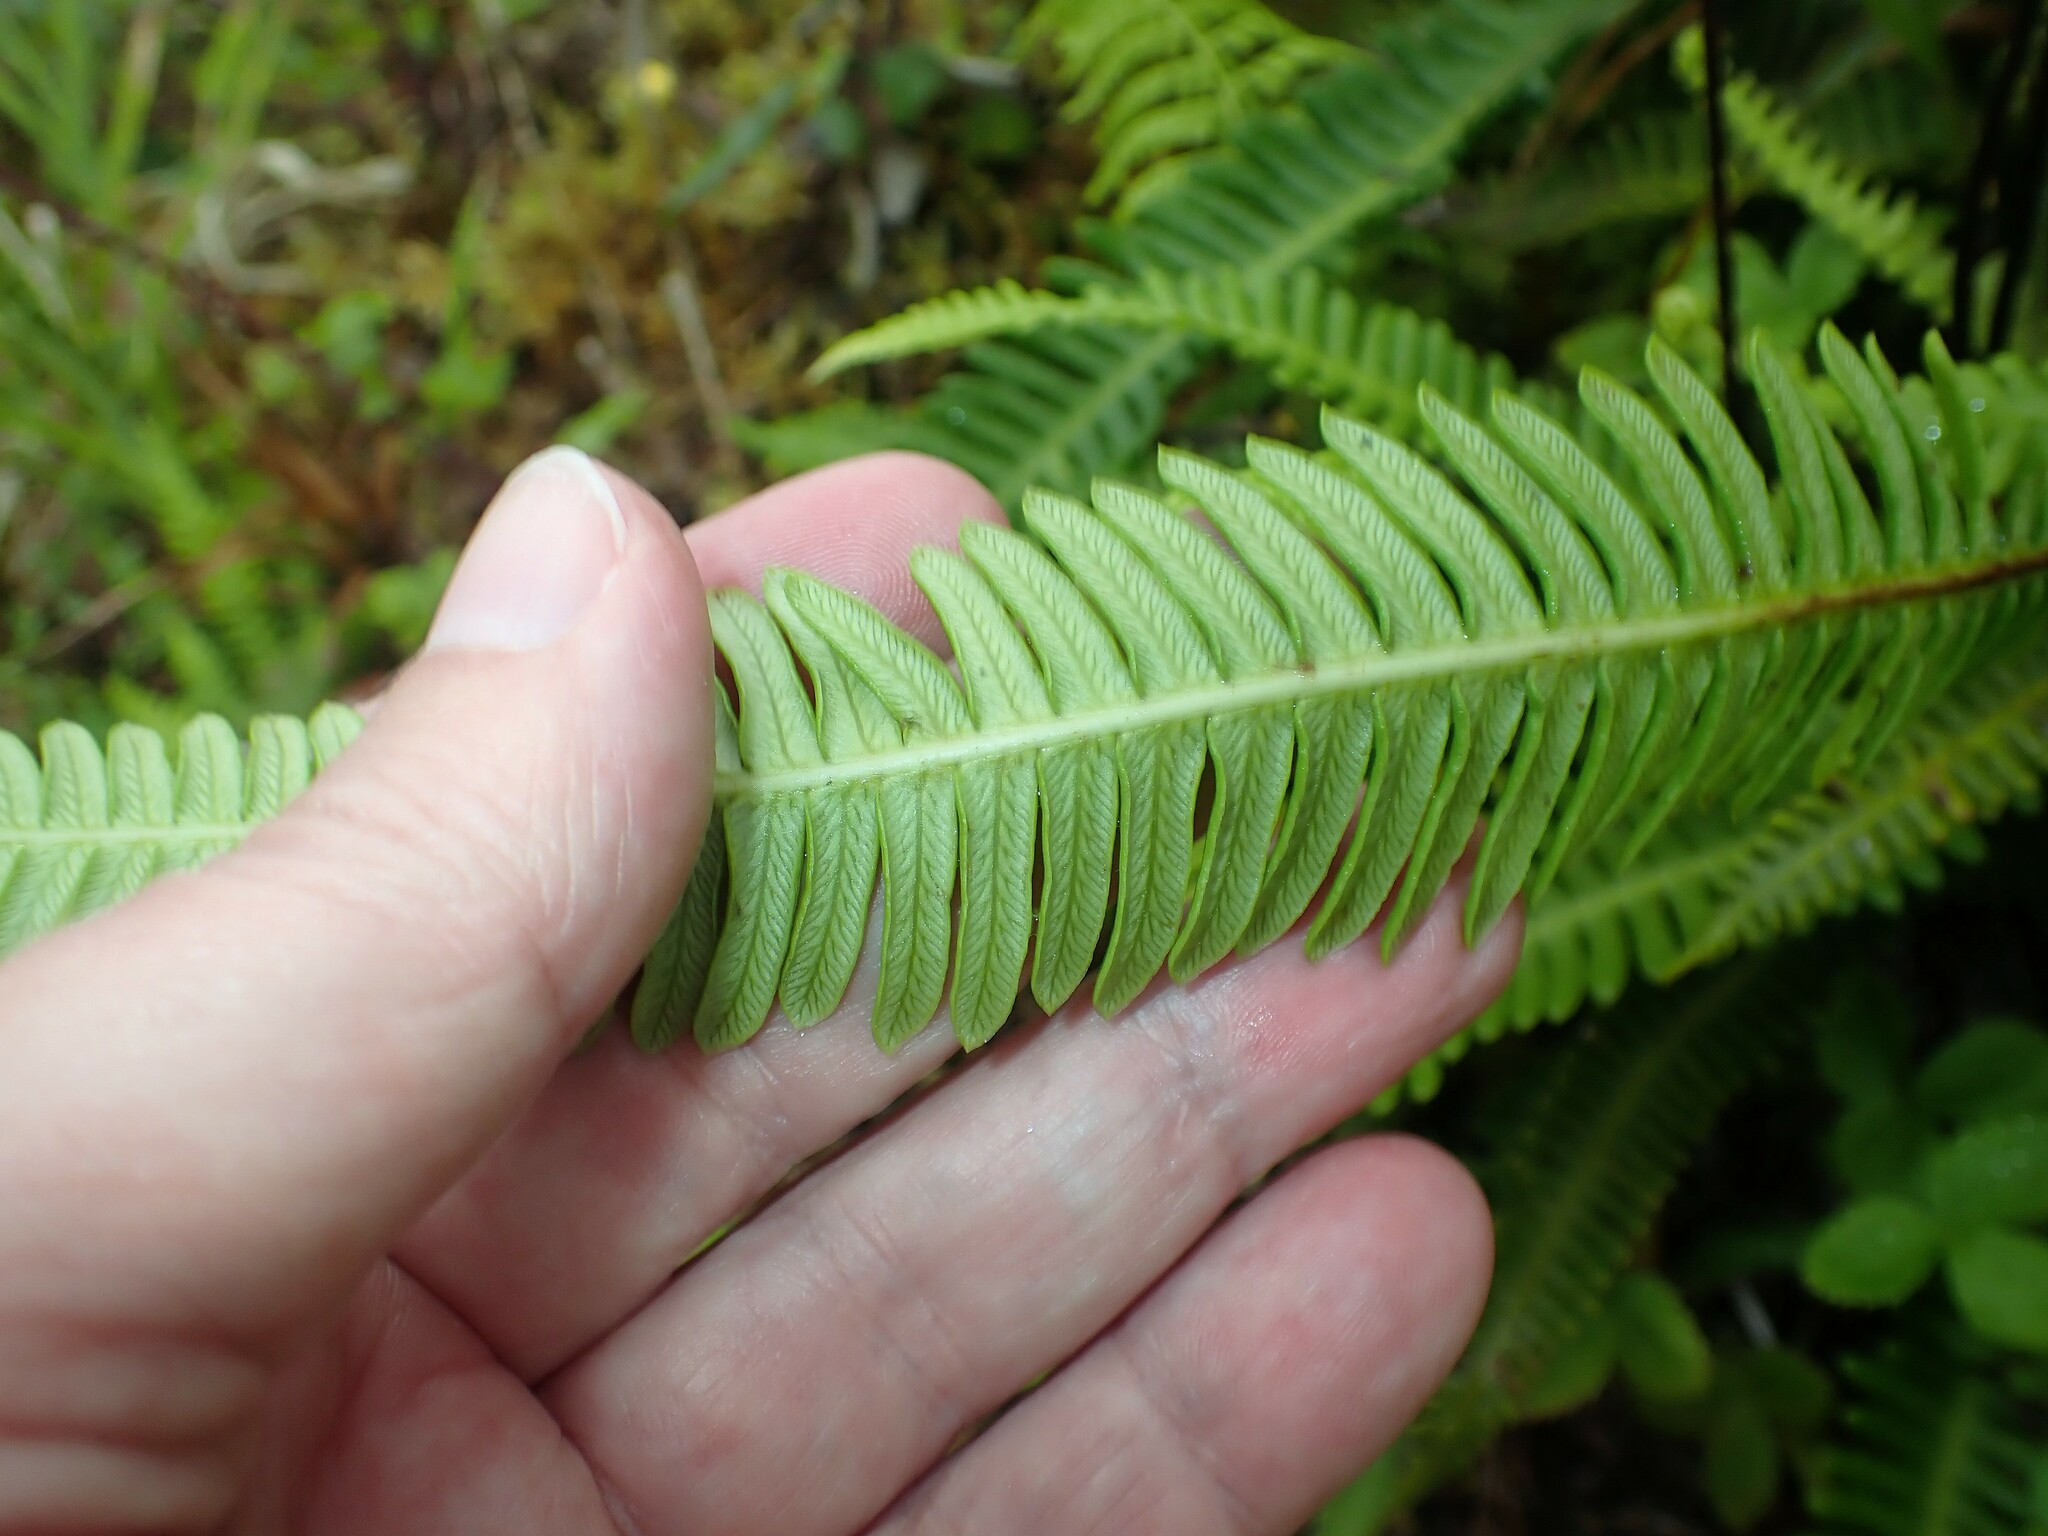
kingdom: Plantae
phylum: Tracheophyta
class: Polypodiopsida
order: Polypodiales
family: Blechnaceae
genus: Struthiopteris
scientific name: Struthiopteris spicant
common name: Deer fern
